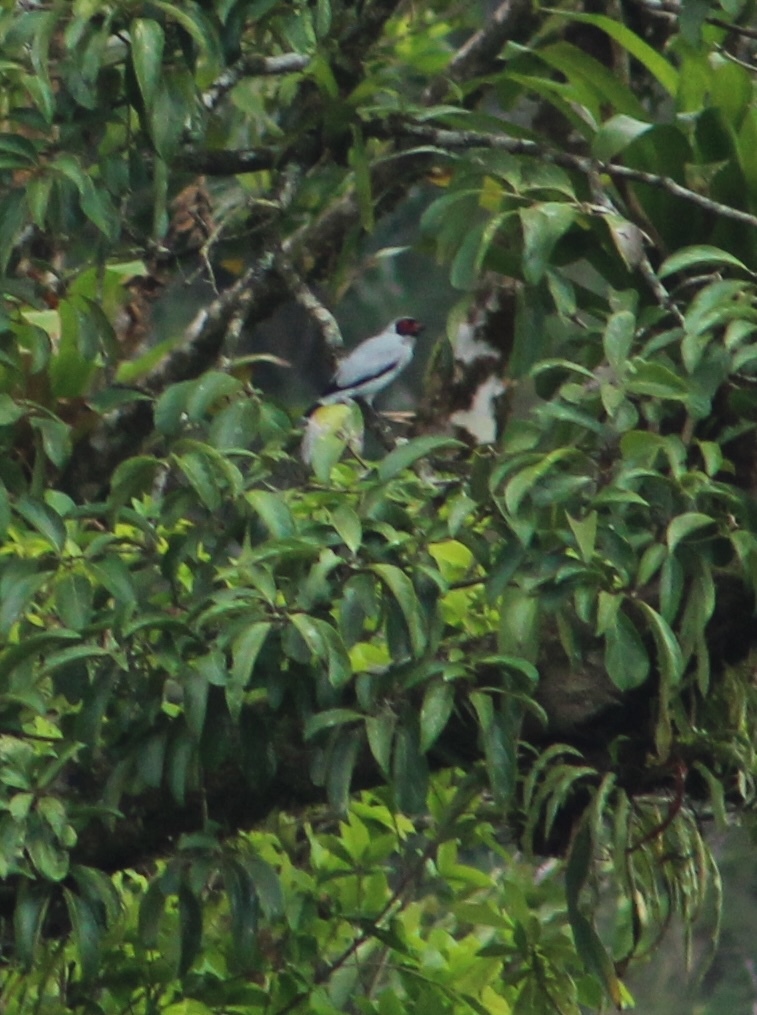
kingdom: Animalia
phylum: Chordata
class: Aves
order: Passeriformes
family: Cotingidae
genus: Tityra
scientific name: Tityra semifasciata
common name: Masked tityra
